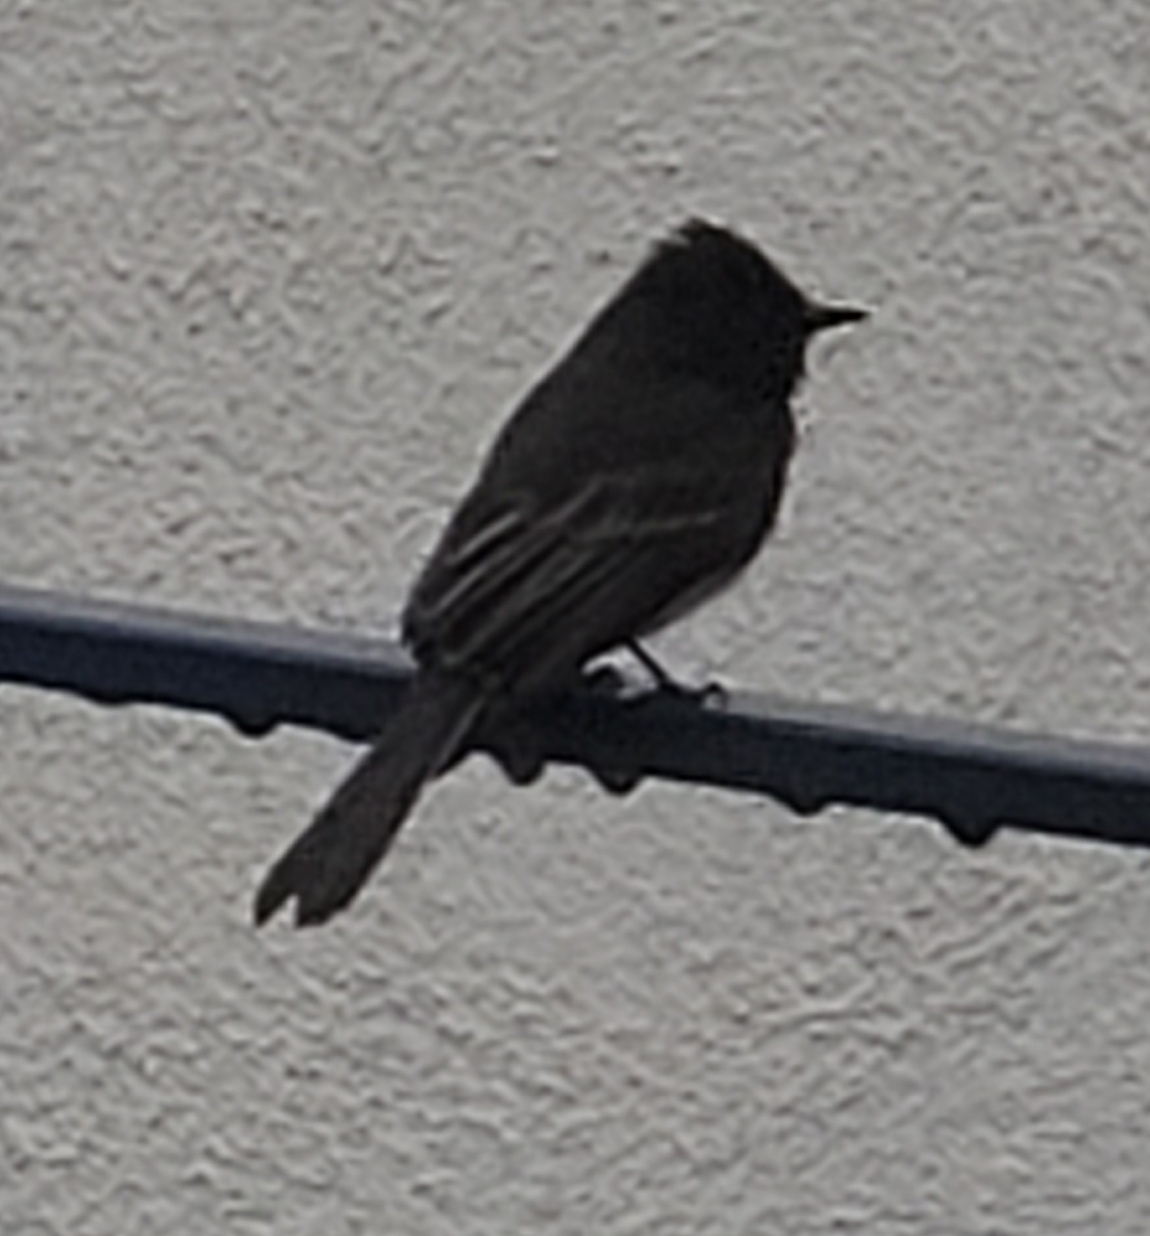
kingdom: Animalia
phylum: Chordata
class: Aves
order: Passeriformes
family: Tyrannidae
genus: Sayornis
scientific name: Sayornis nigricans
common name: Black phoebe
